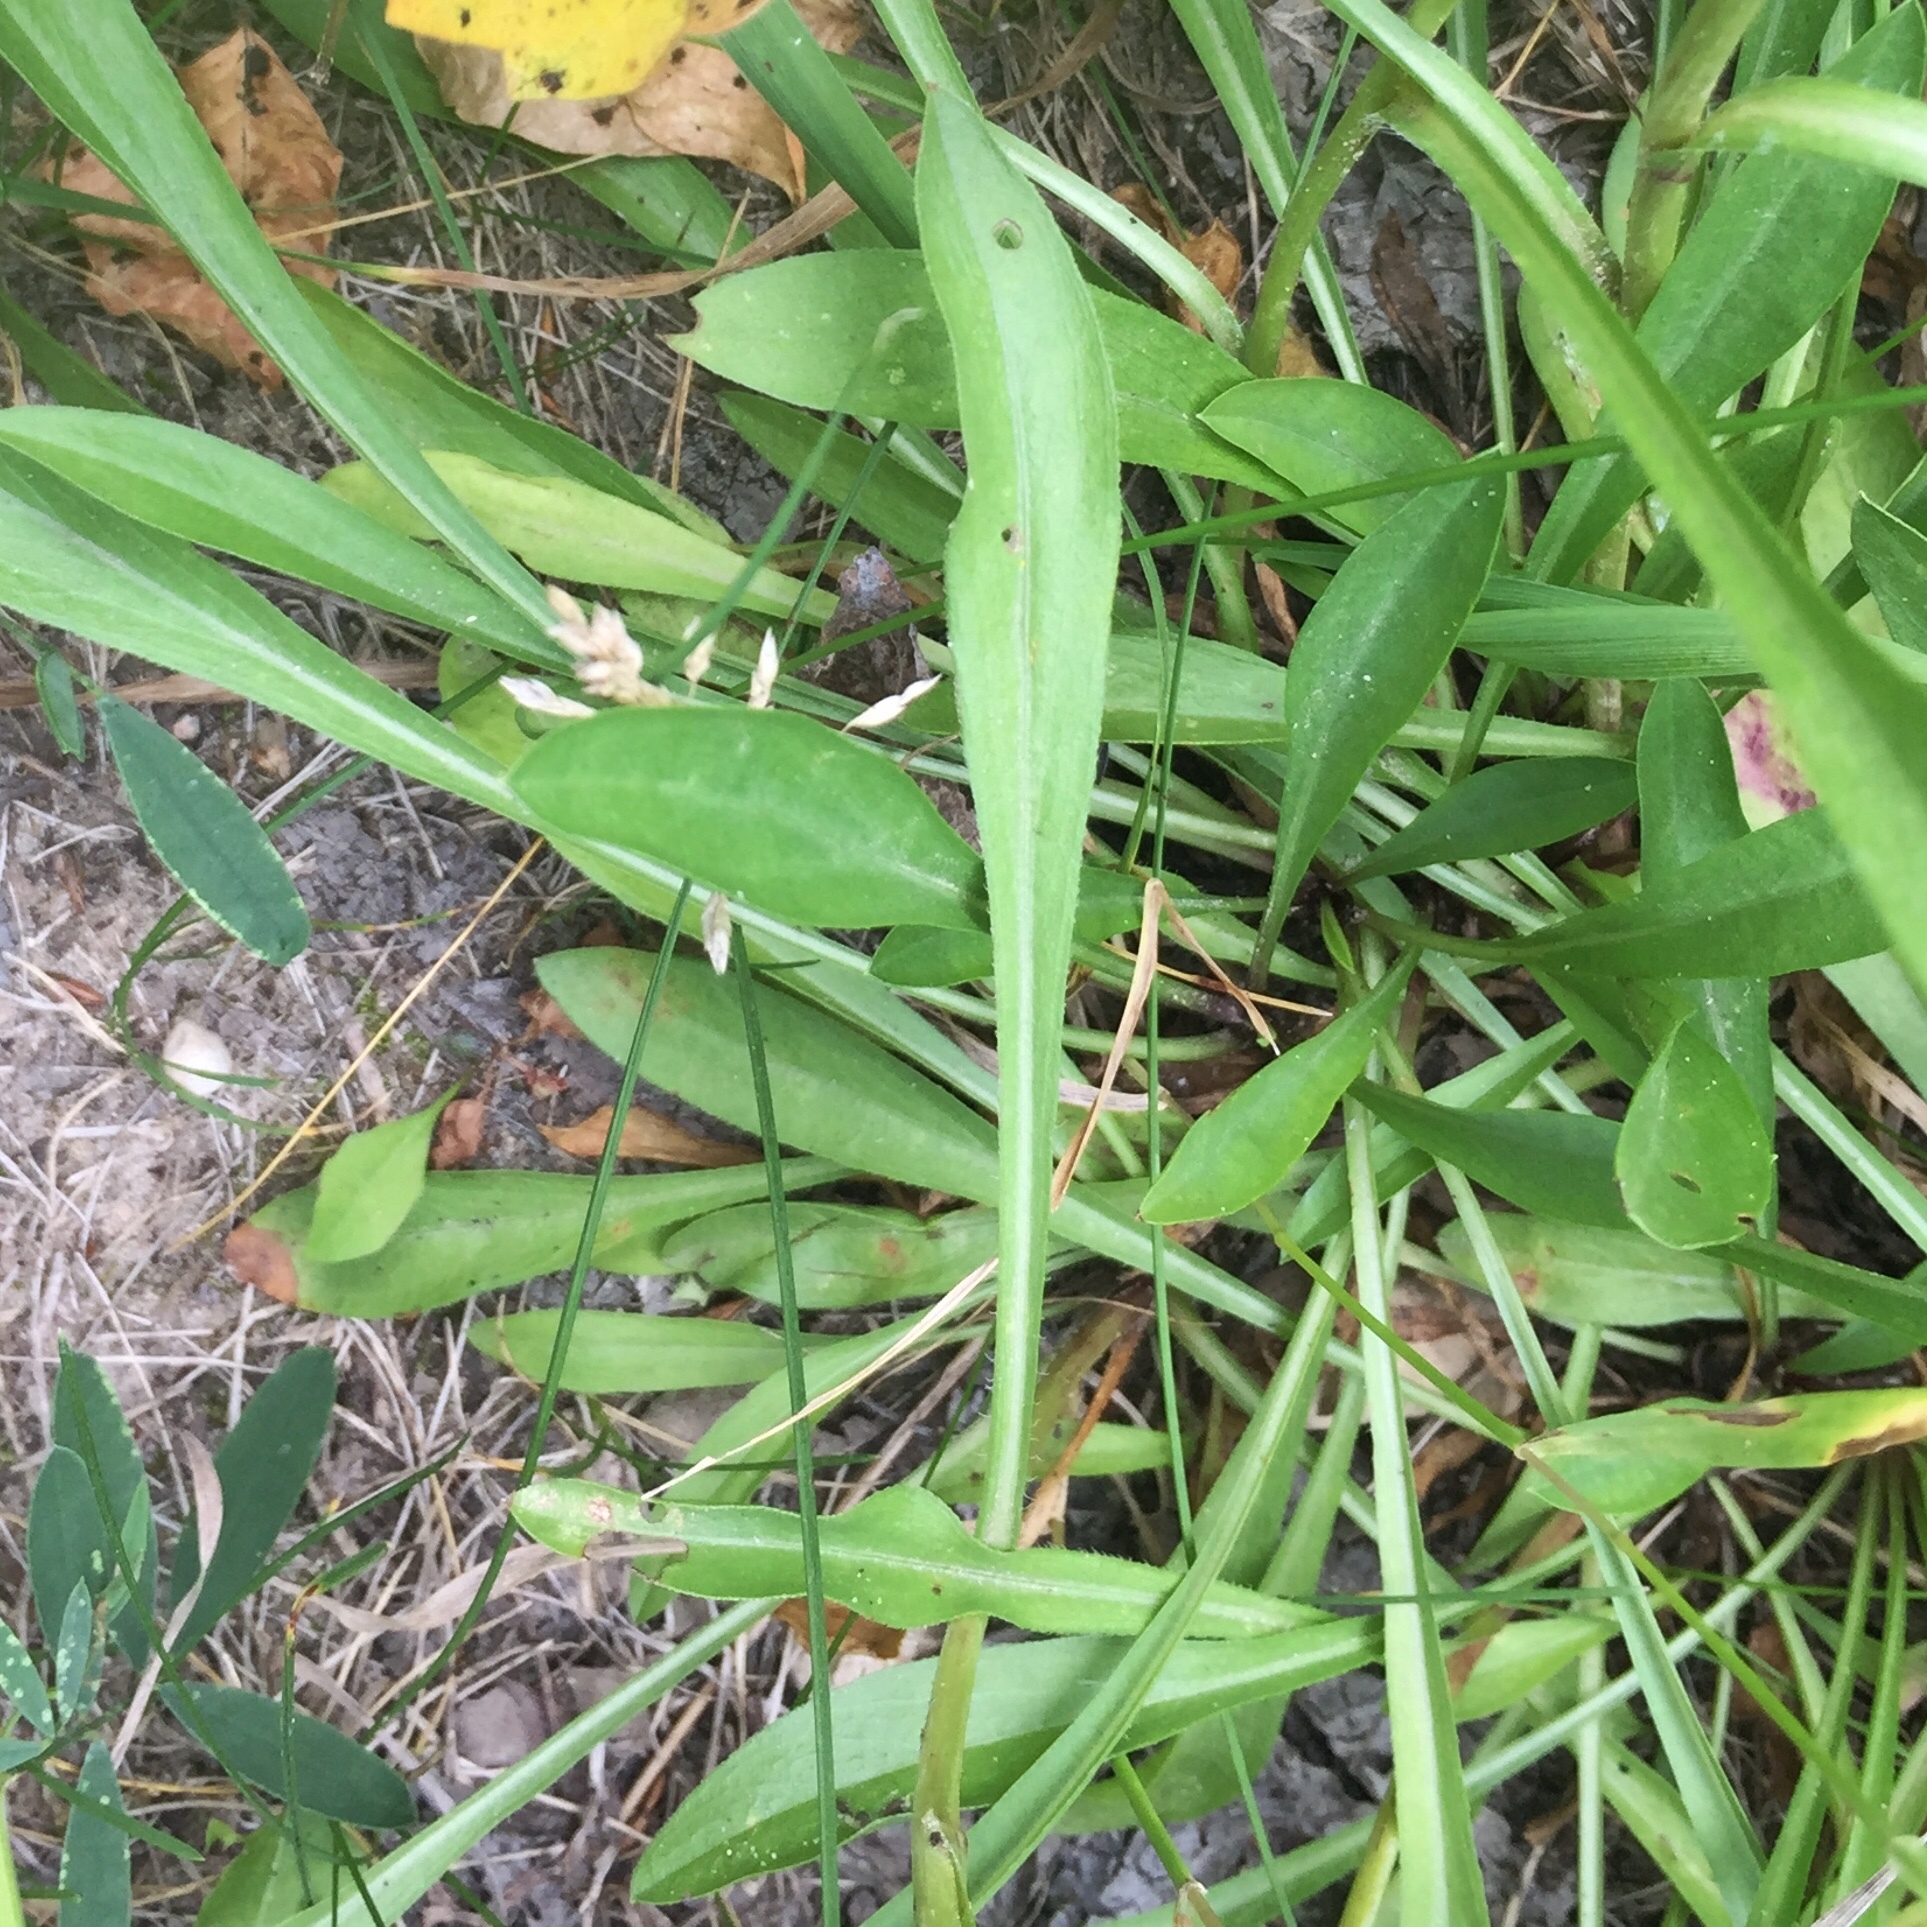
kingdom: Plantae
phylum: Tracheophyta
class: Magnoliopsida
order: Asterales
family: Asteraceae
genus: Erigeron
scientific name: Erigeron philadelphicus
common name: Robin's-plantain
